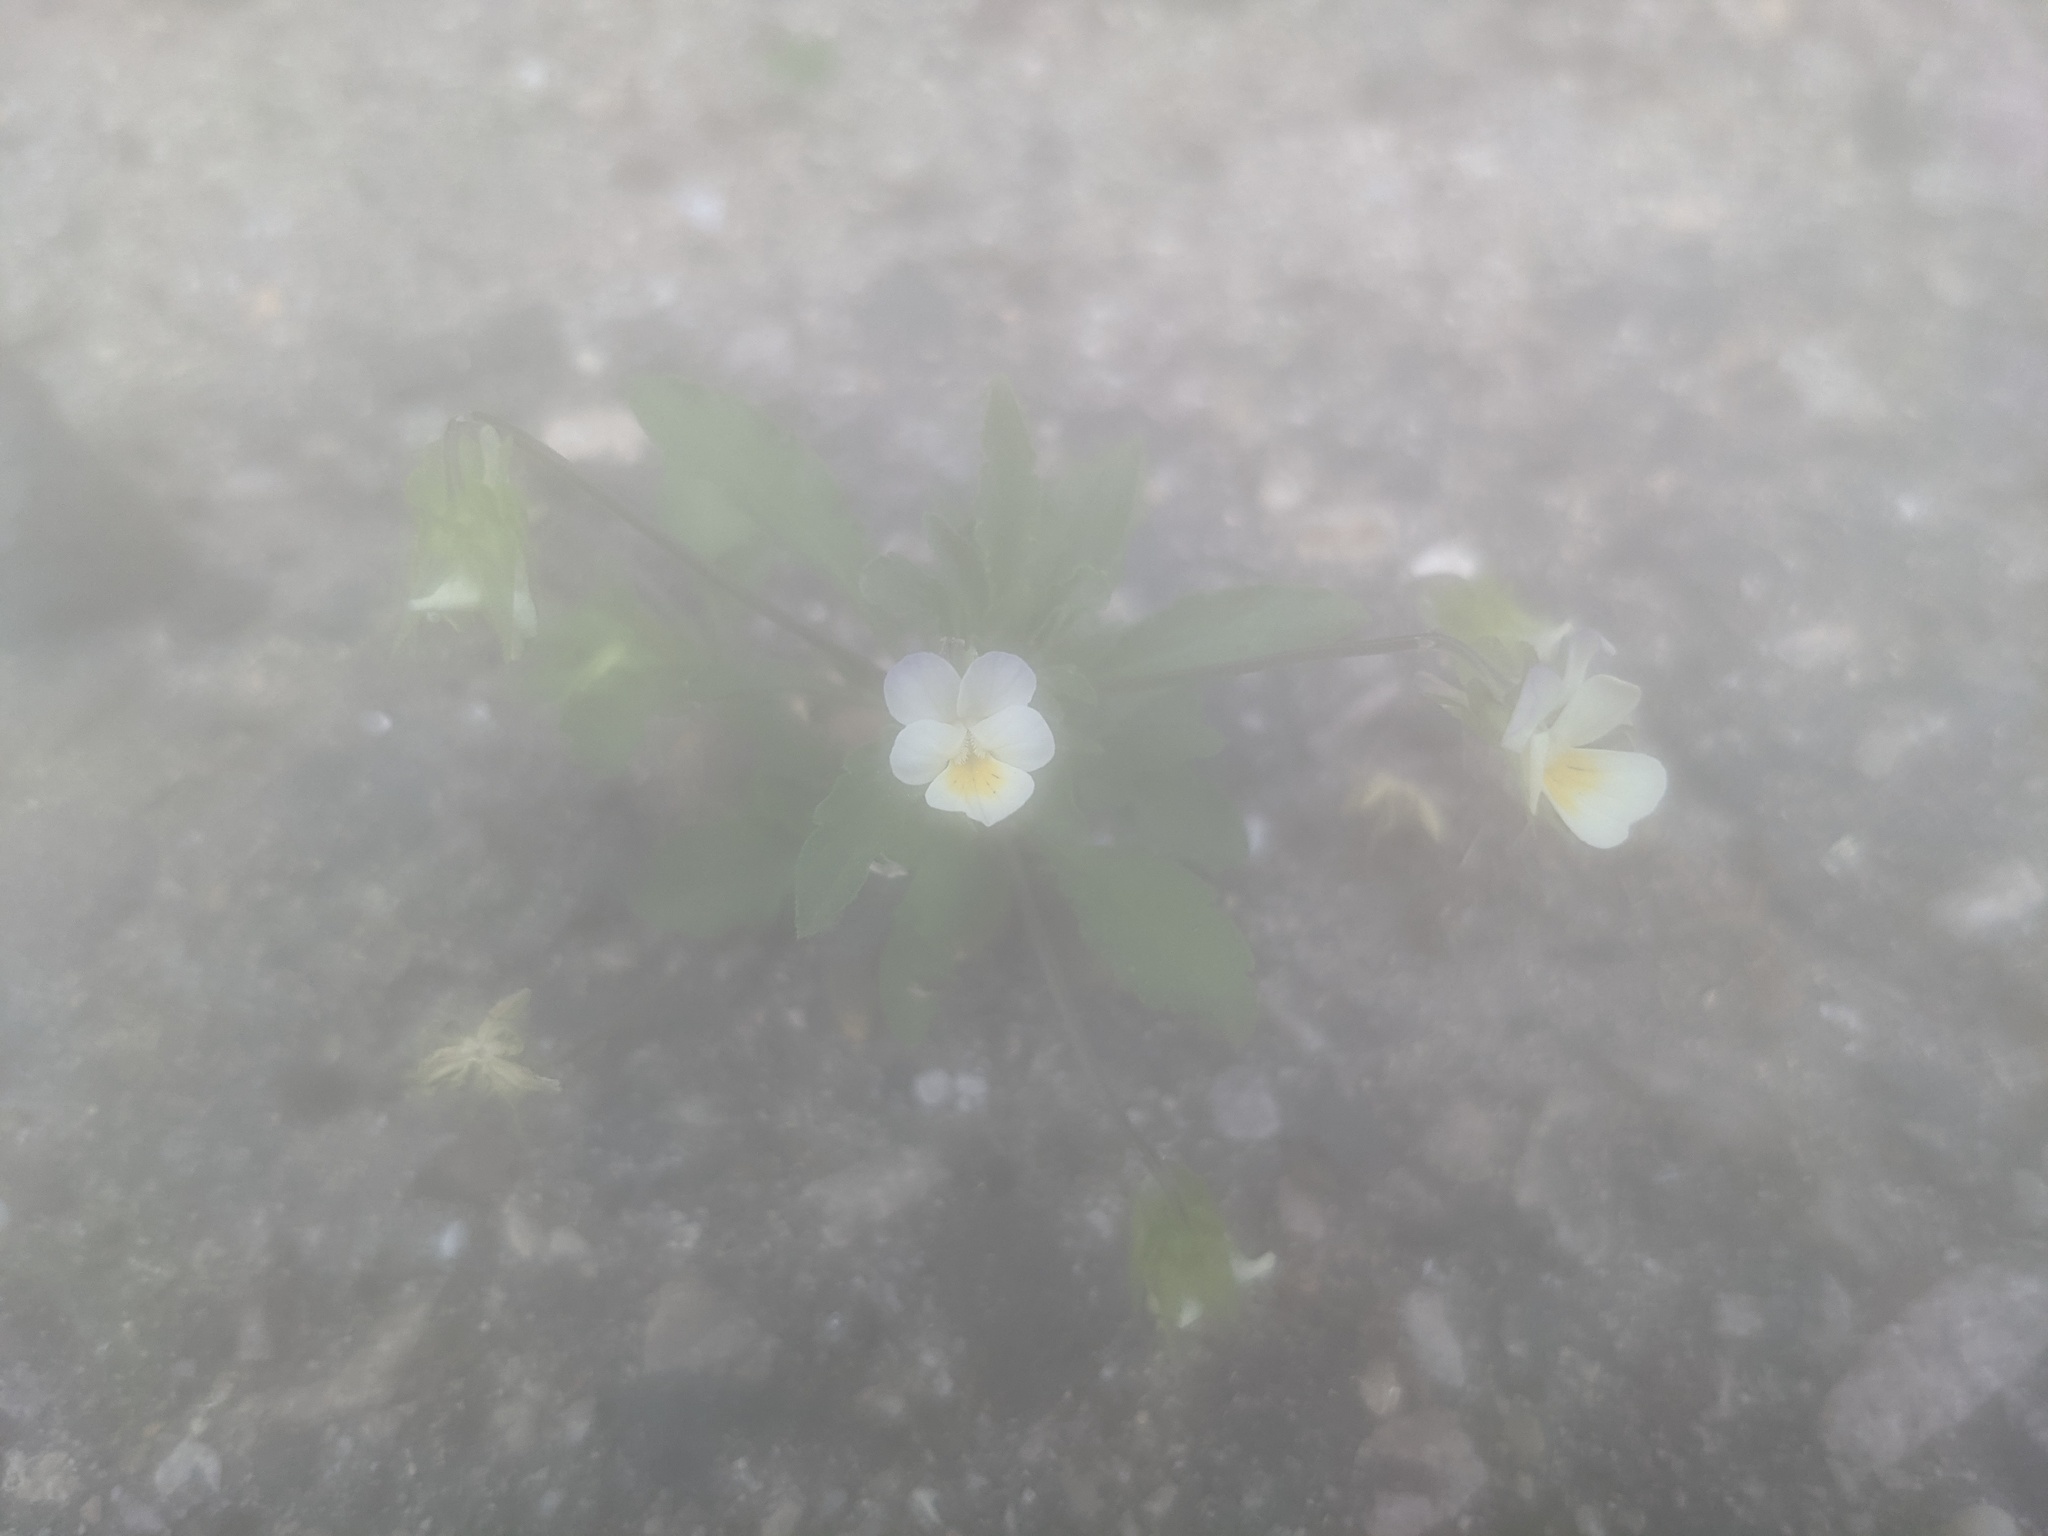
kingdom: Plantae
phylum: Tracheophyta
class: Magnoliopsida
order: Malpighiales
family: Violaceae
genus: Viola
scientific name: Viola arvensis
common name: Field pansy
